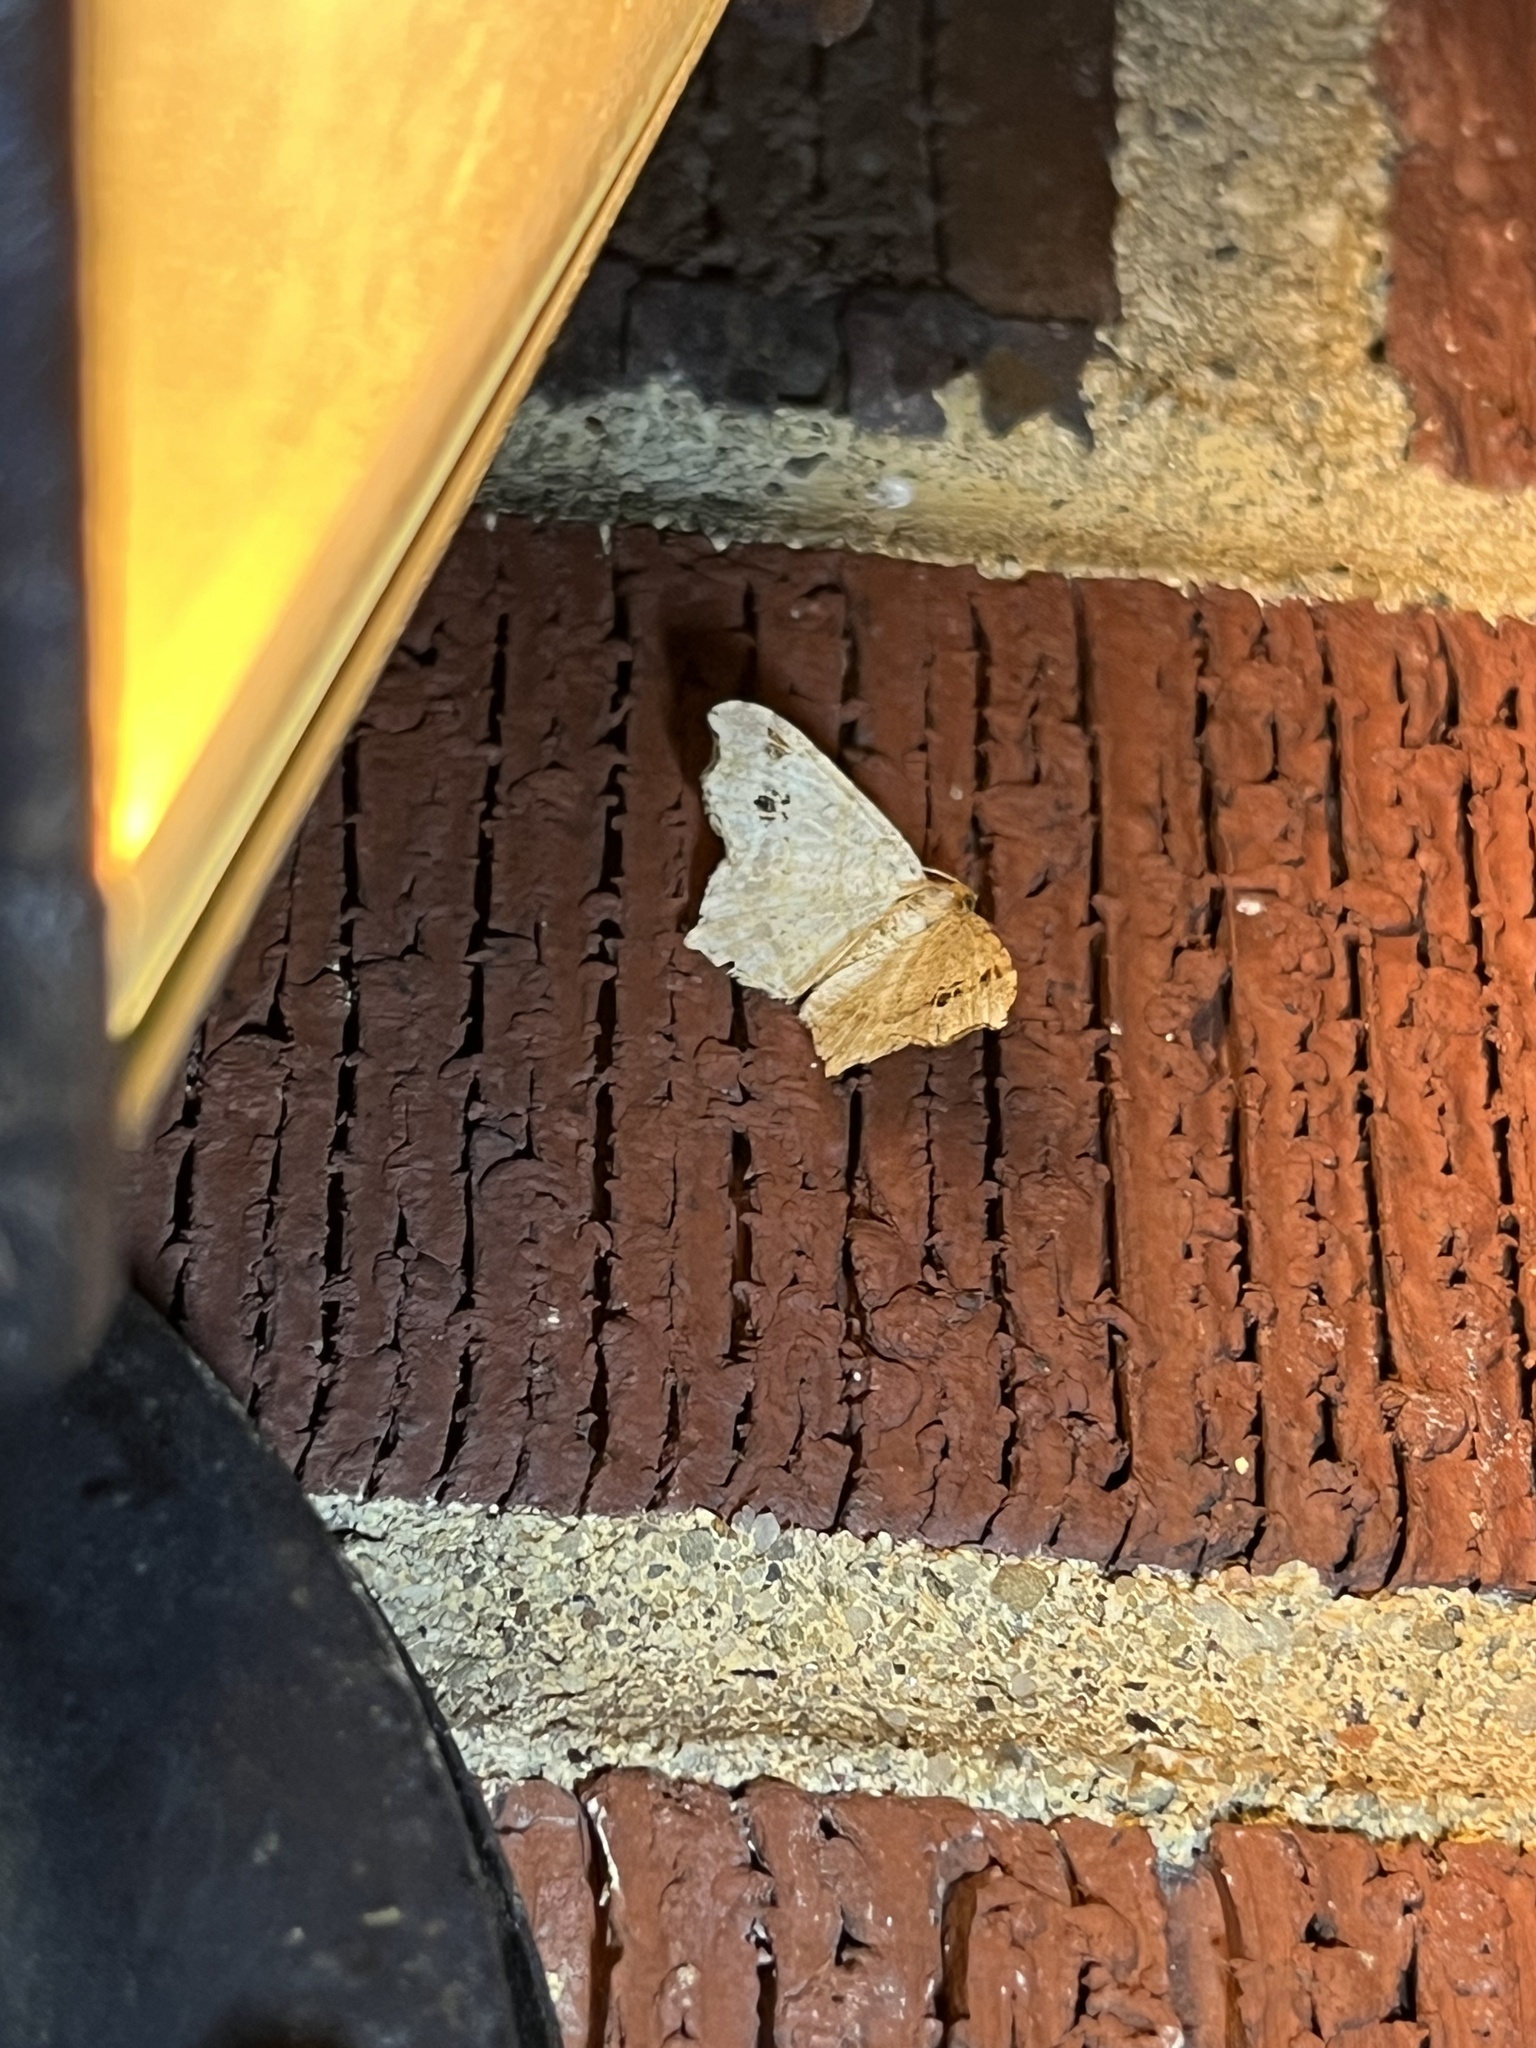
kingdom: Animalia
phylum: Arthropoda
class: Insecta
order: Lepidoptera
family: Geometridae
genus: Macaria
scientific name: Macaria aemulataria
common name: Common angle
